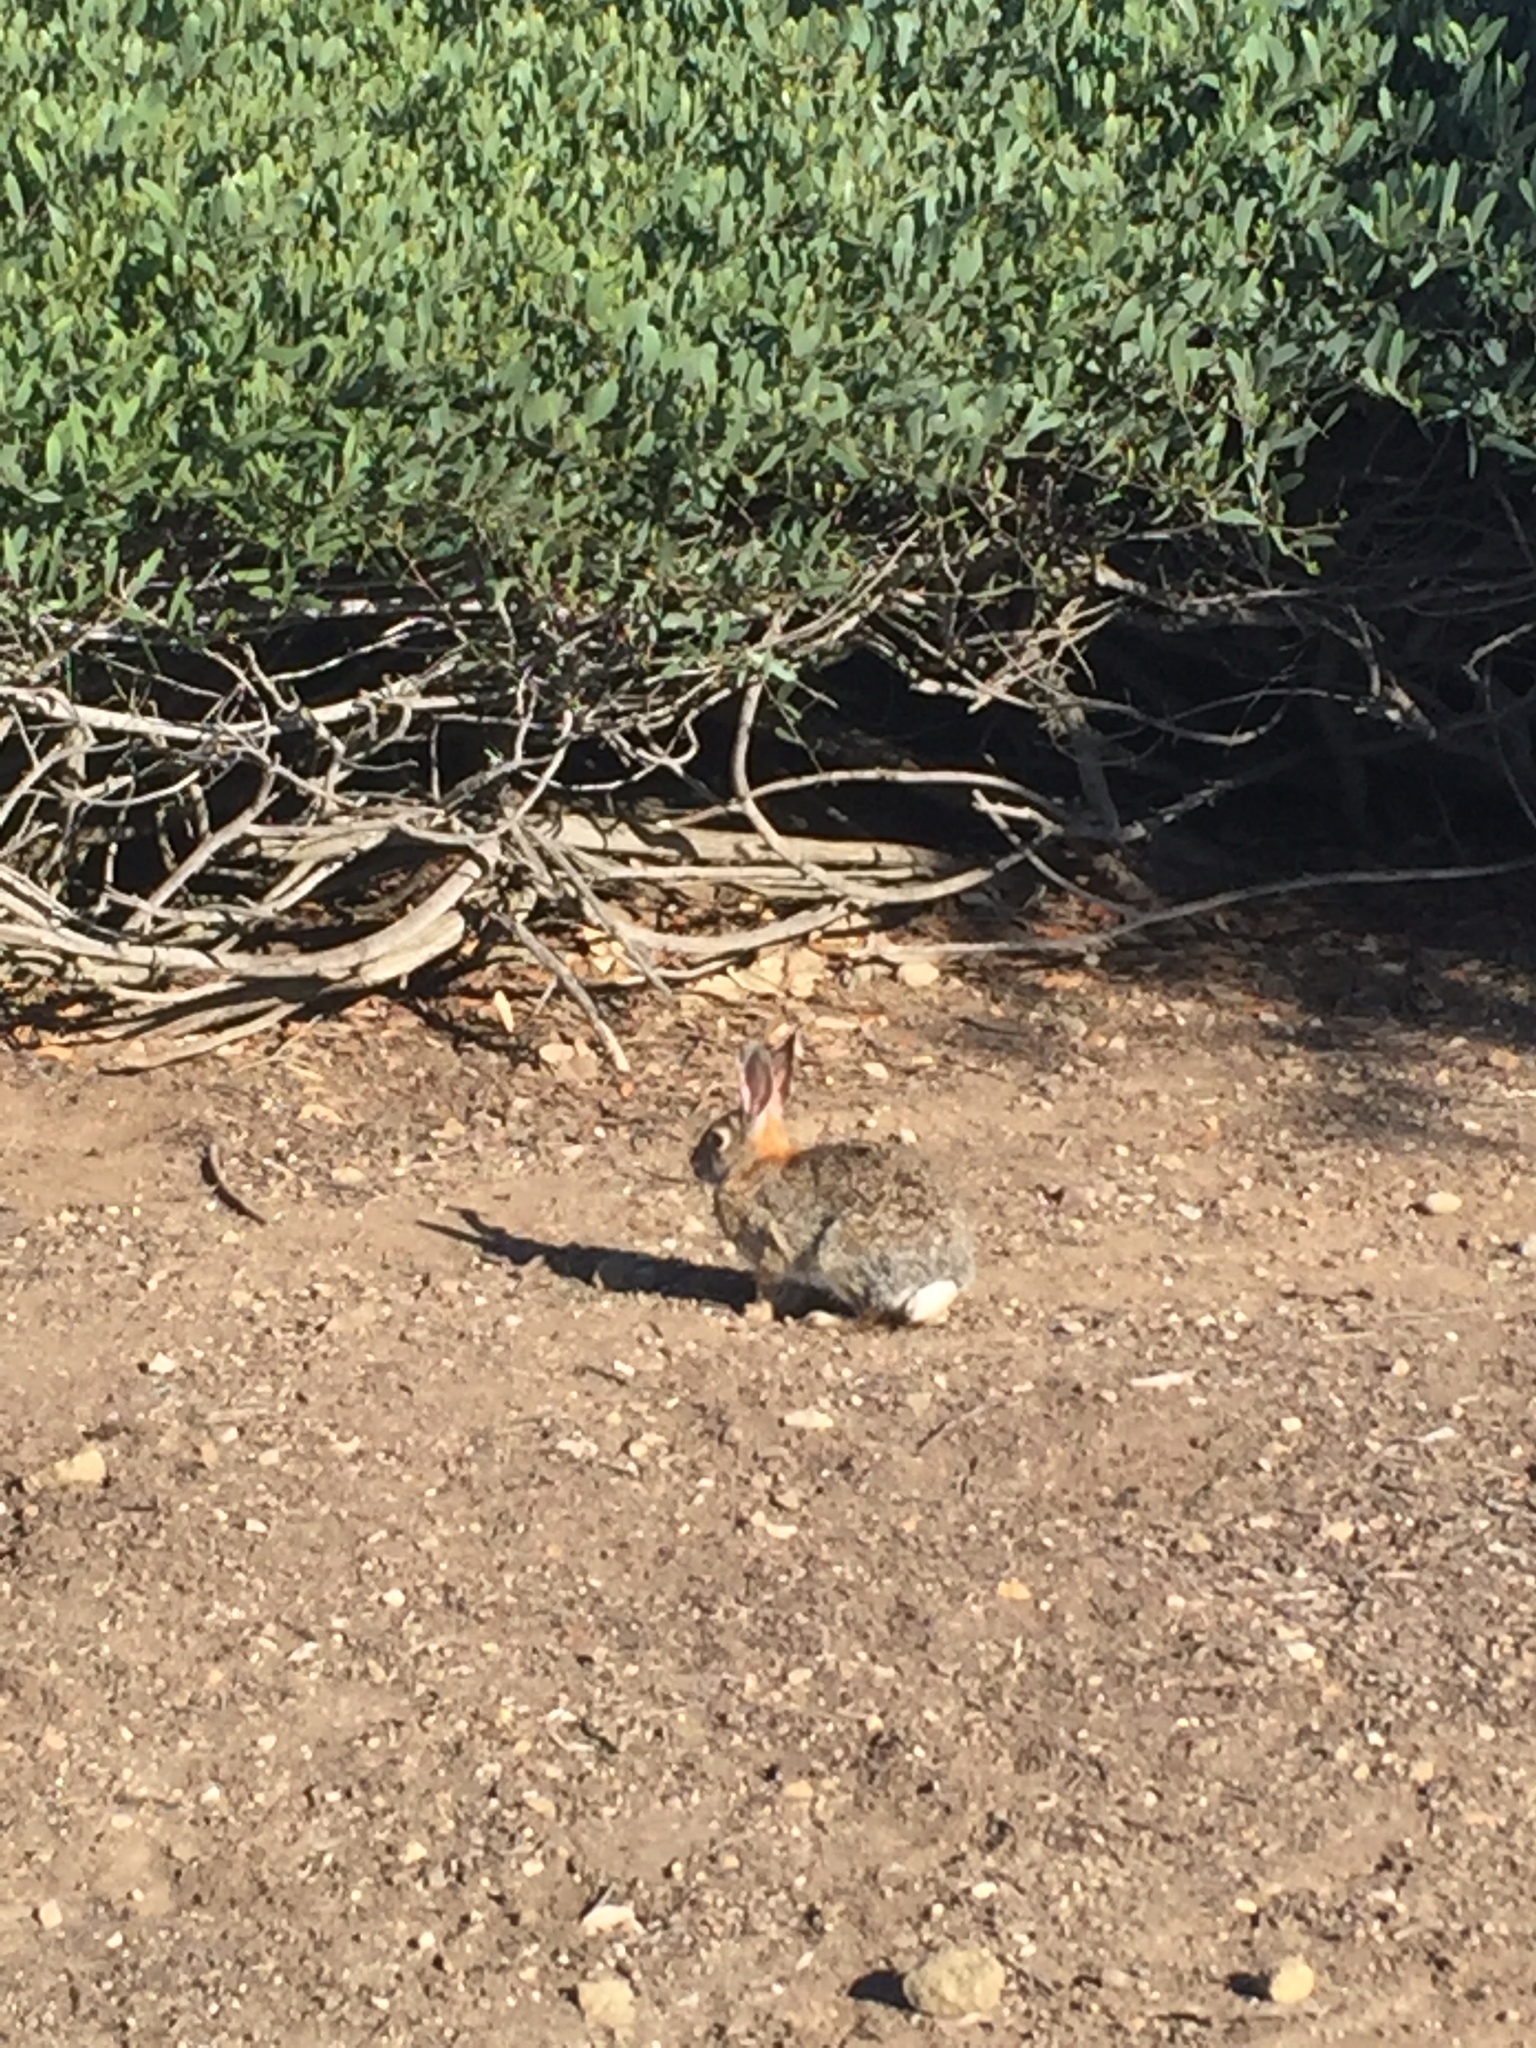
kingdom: Animalia
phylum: Chordata
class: Mammalia
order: Lagomorpha
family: Leporidae
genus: Sylvilagus
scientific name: Sylvilagus audubonii
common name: Desert cottontail
